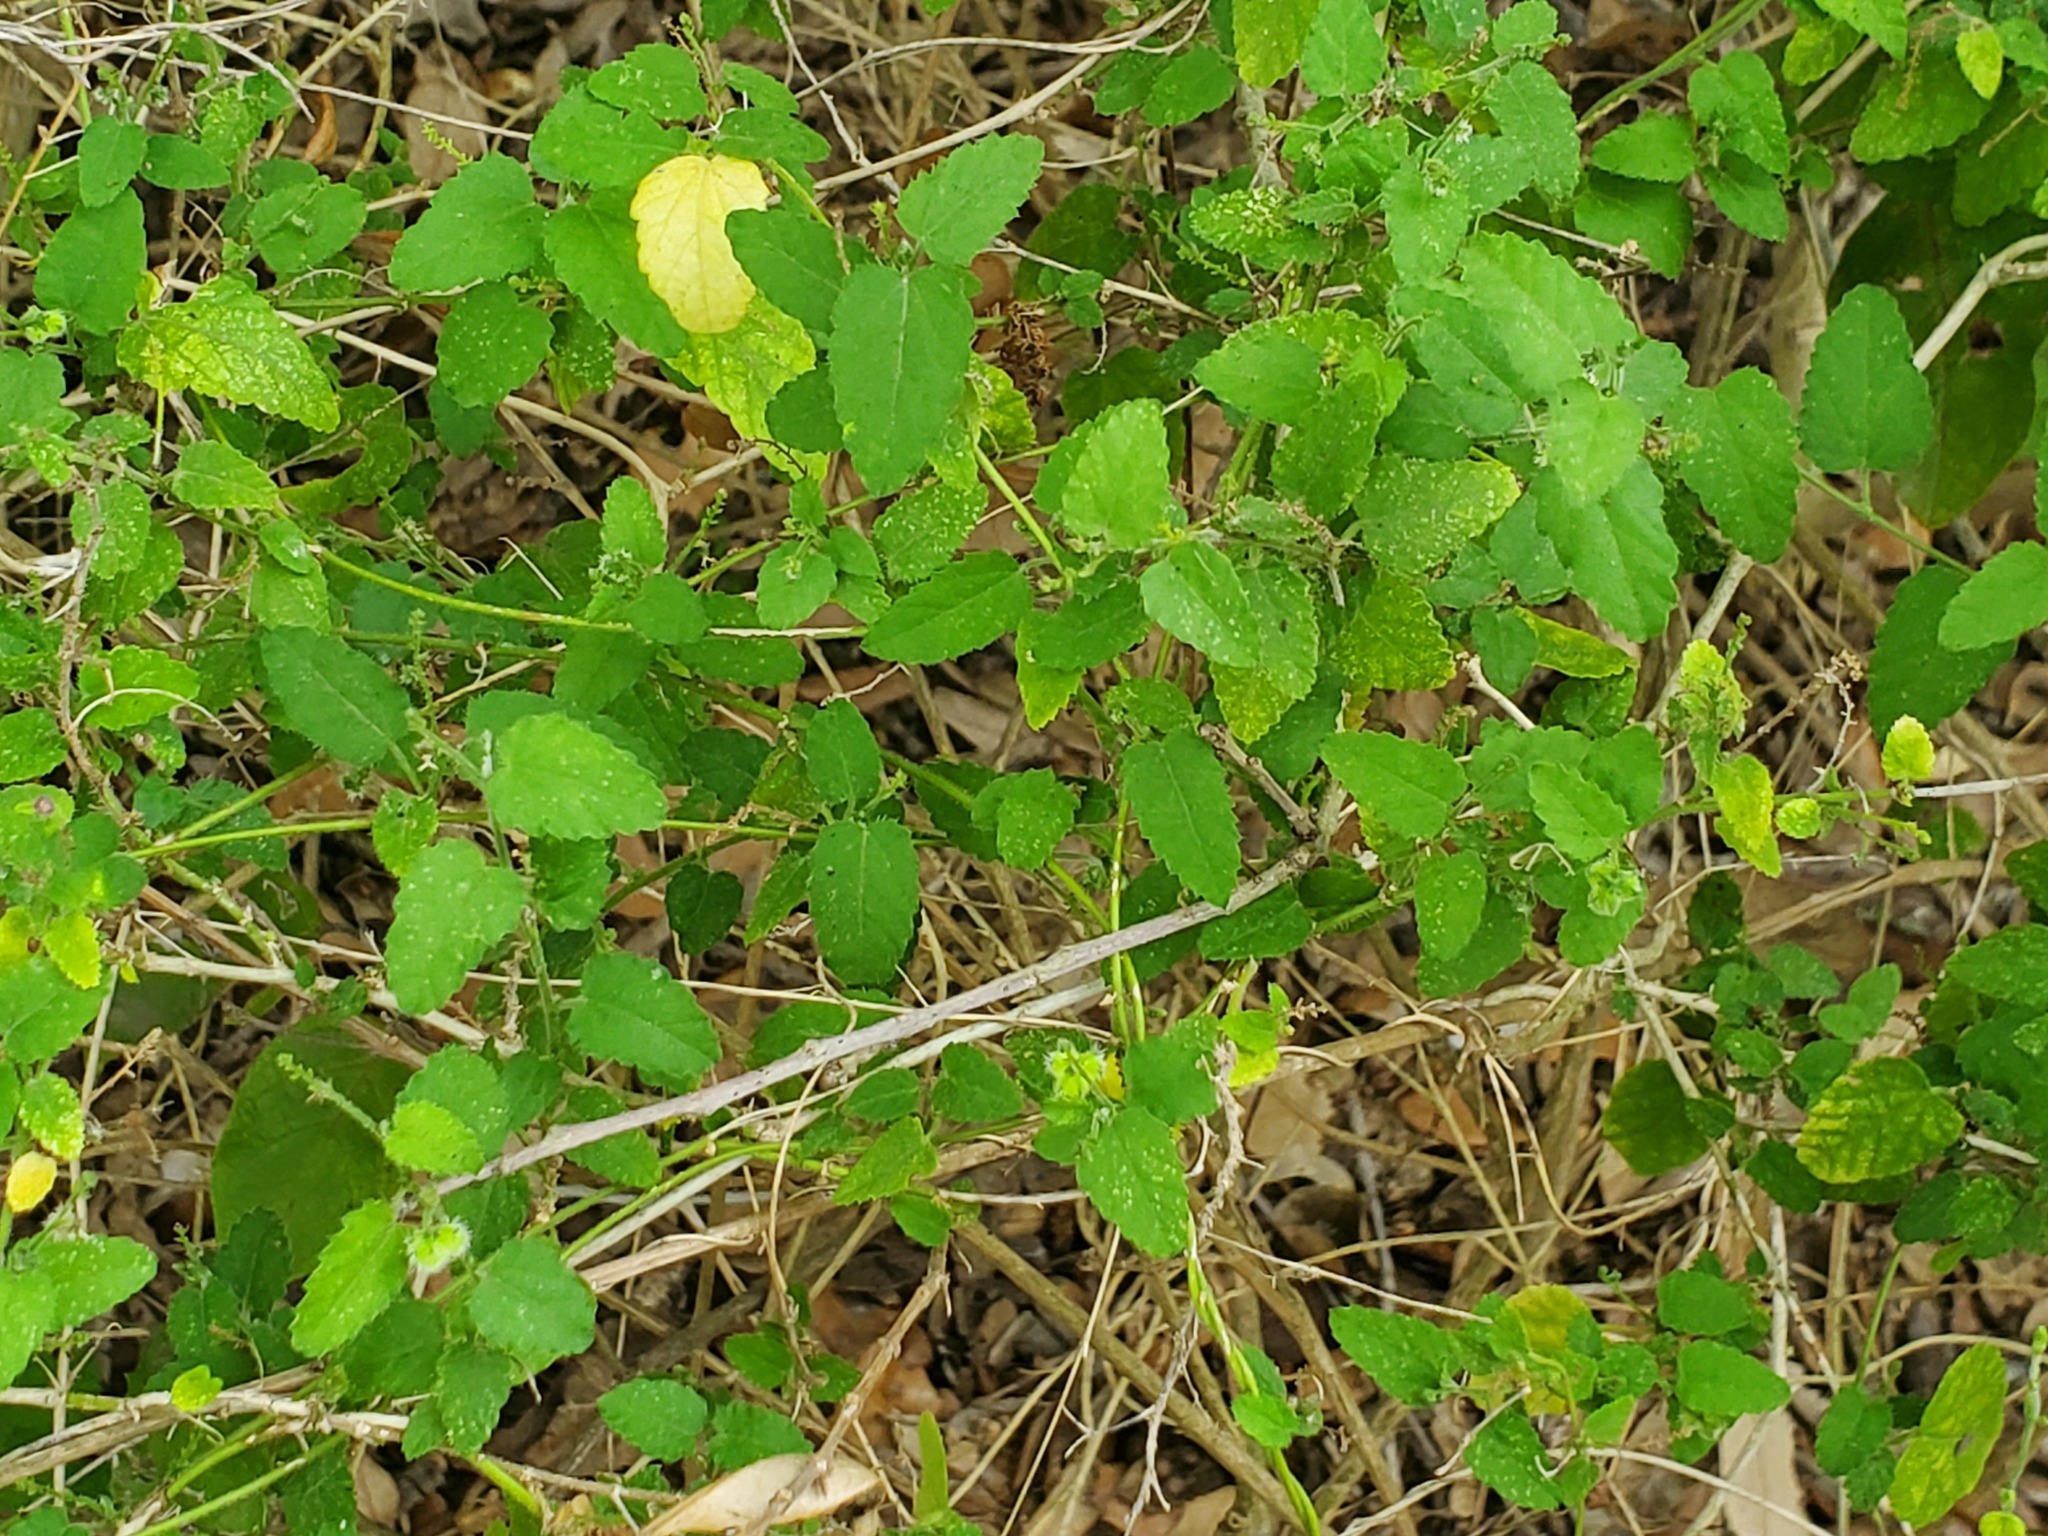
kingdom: Plantae
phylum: Tracheophyta
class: Magnoliopsida
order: Malpighiales
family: Euphorbiaceae
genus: Tragia
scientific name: Tragia glanduligera
